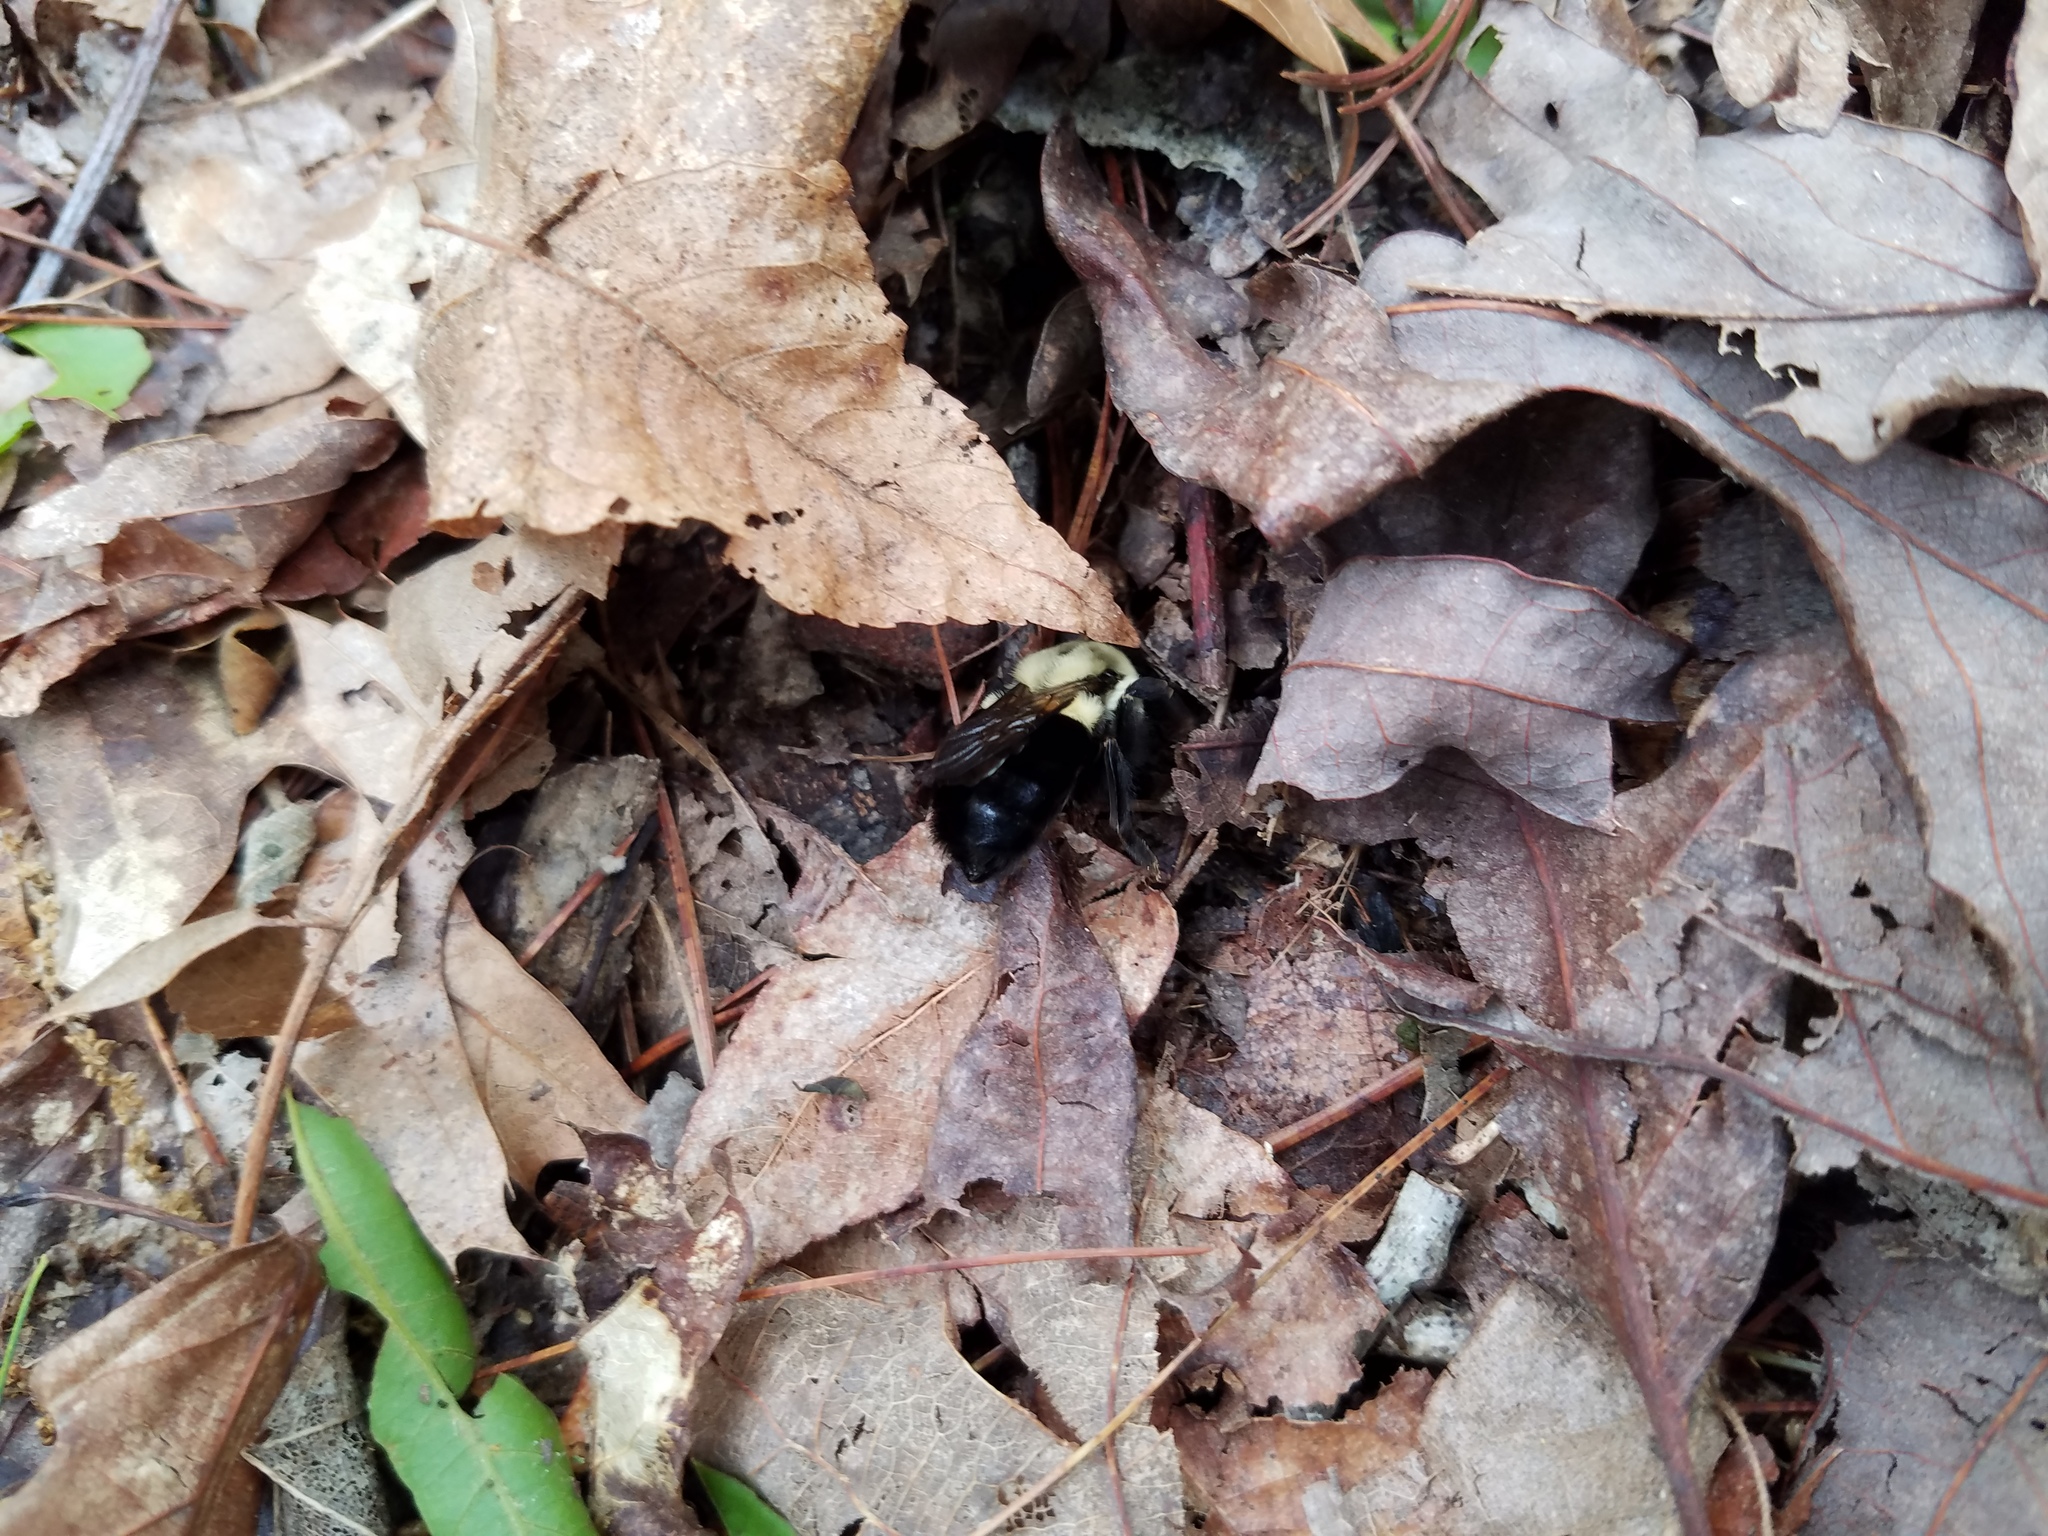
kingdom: Animalia
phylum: Arthropoda
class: Insecta
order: Hymenoptera
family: Apidae
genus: Bombus
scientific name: Bombus impatiens
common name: Common eastern bumble bee
